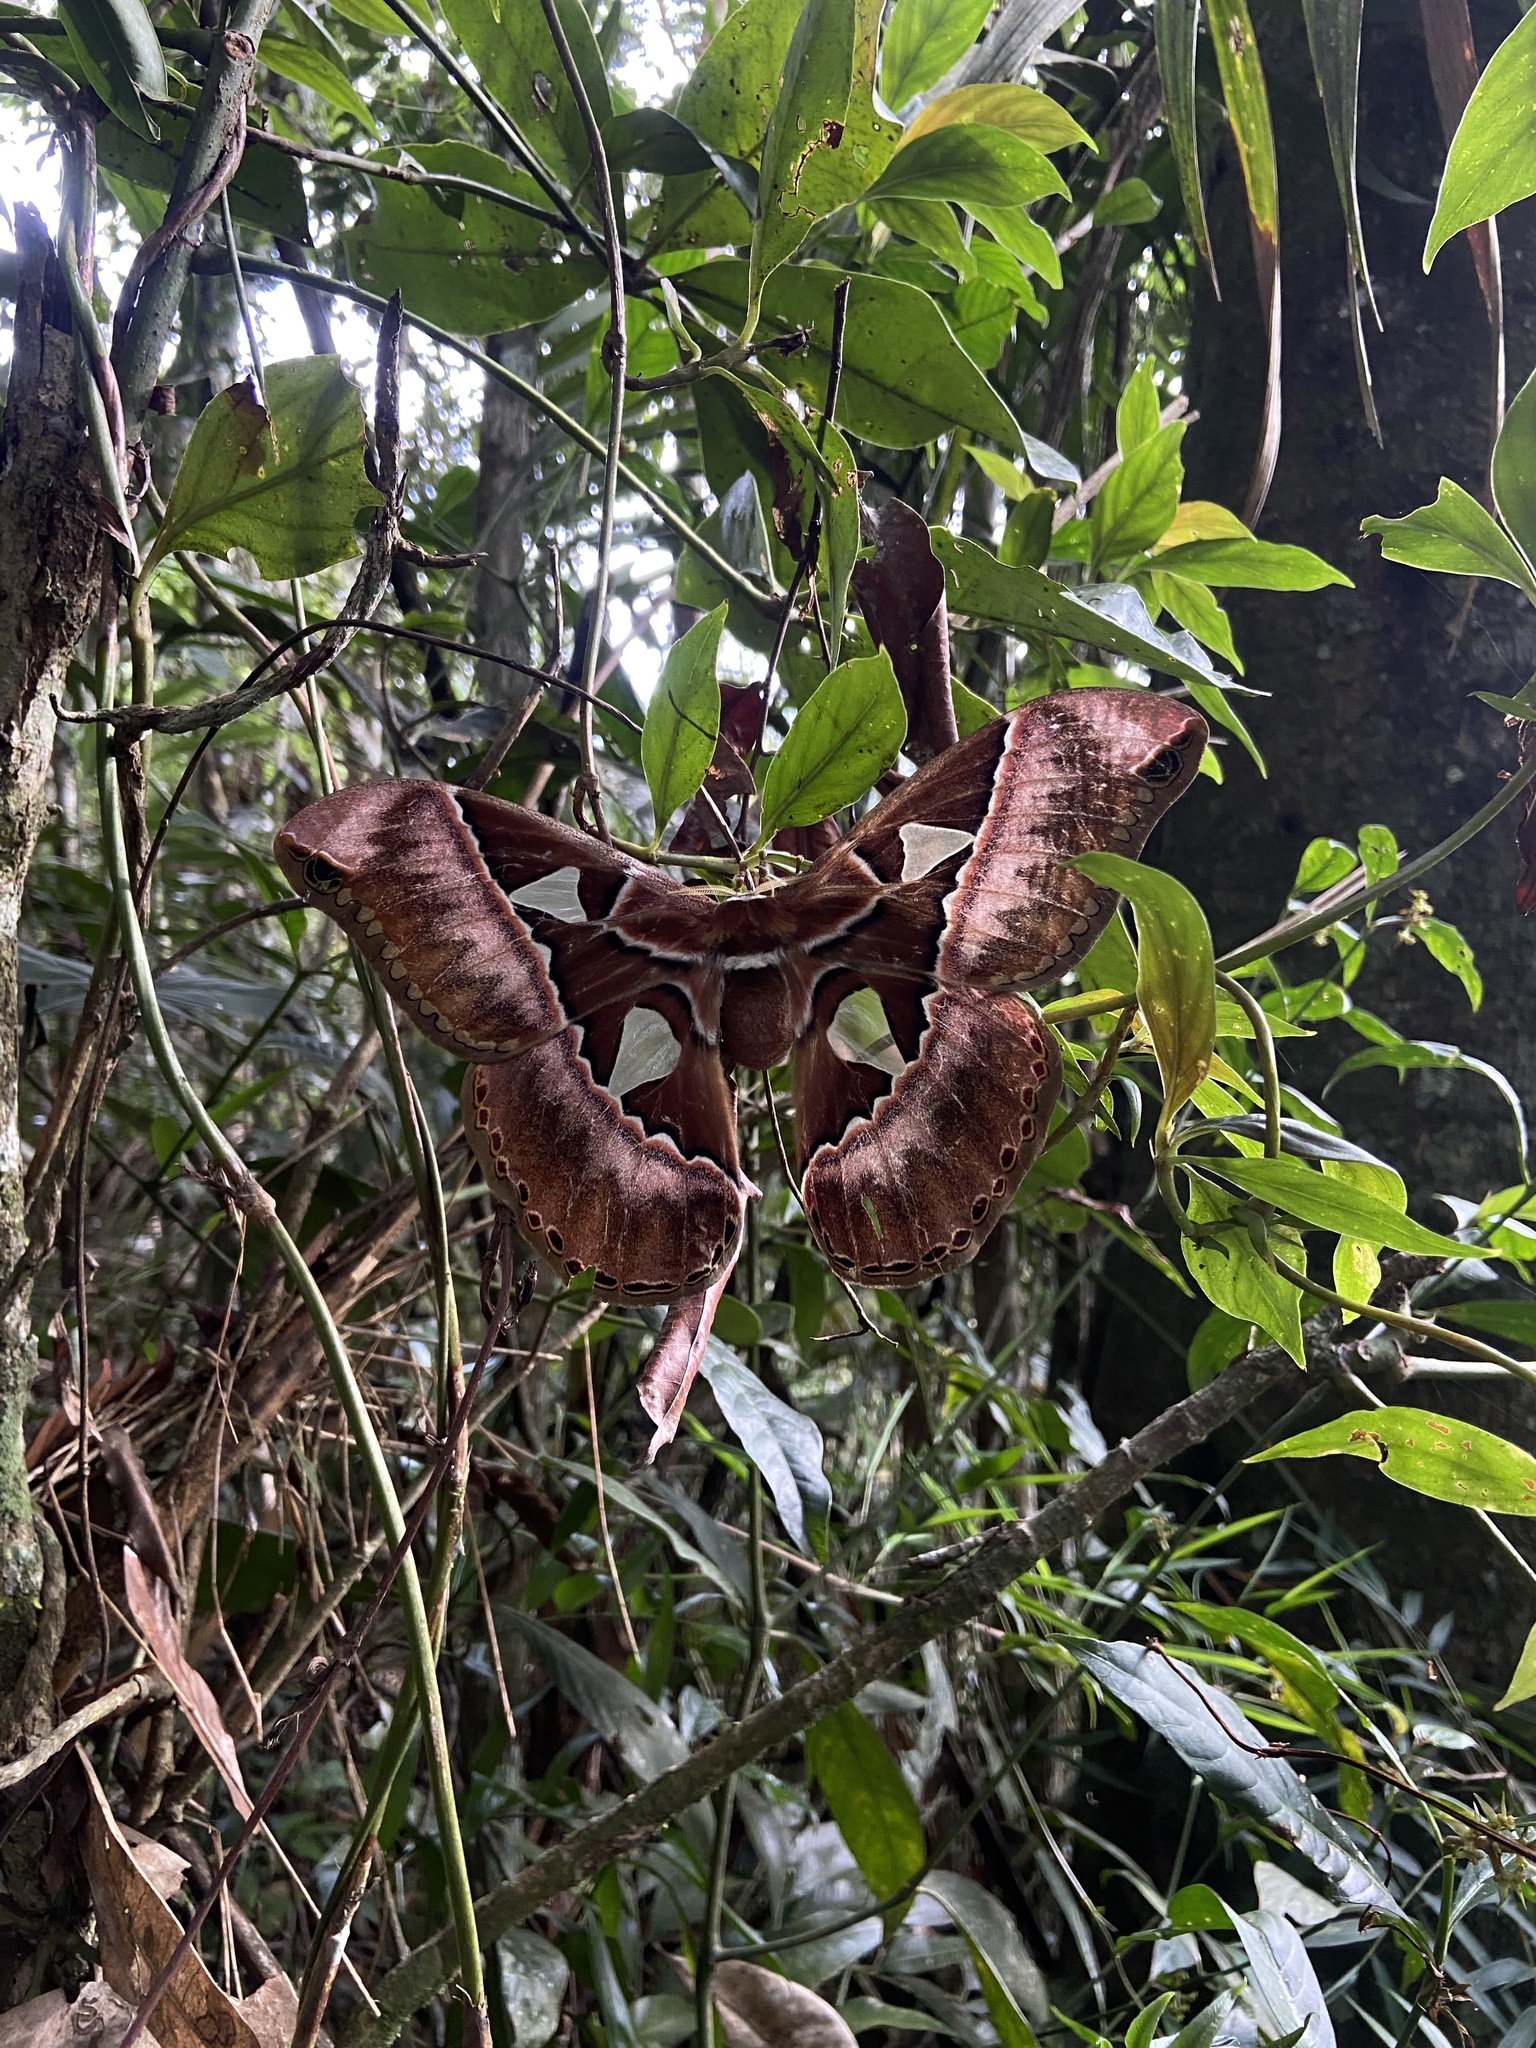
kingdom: Animalia
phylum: Arthropoda
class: Insecta
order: Lepidoptera
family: Saturniidae
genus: Rothschildia
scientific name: Rothschildia speculifer
